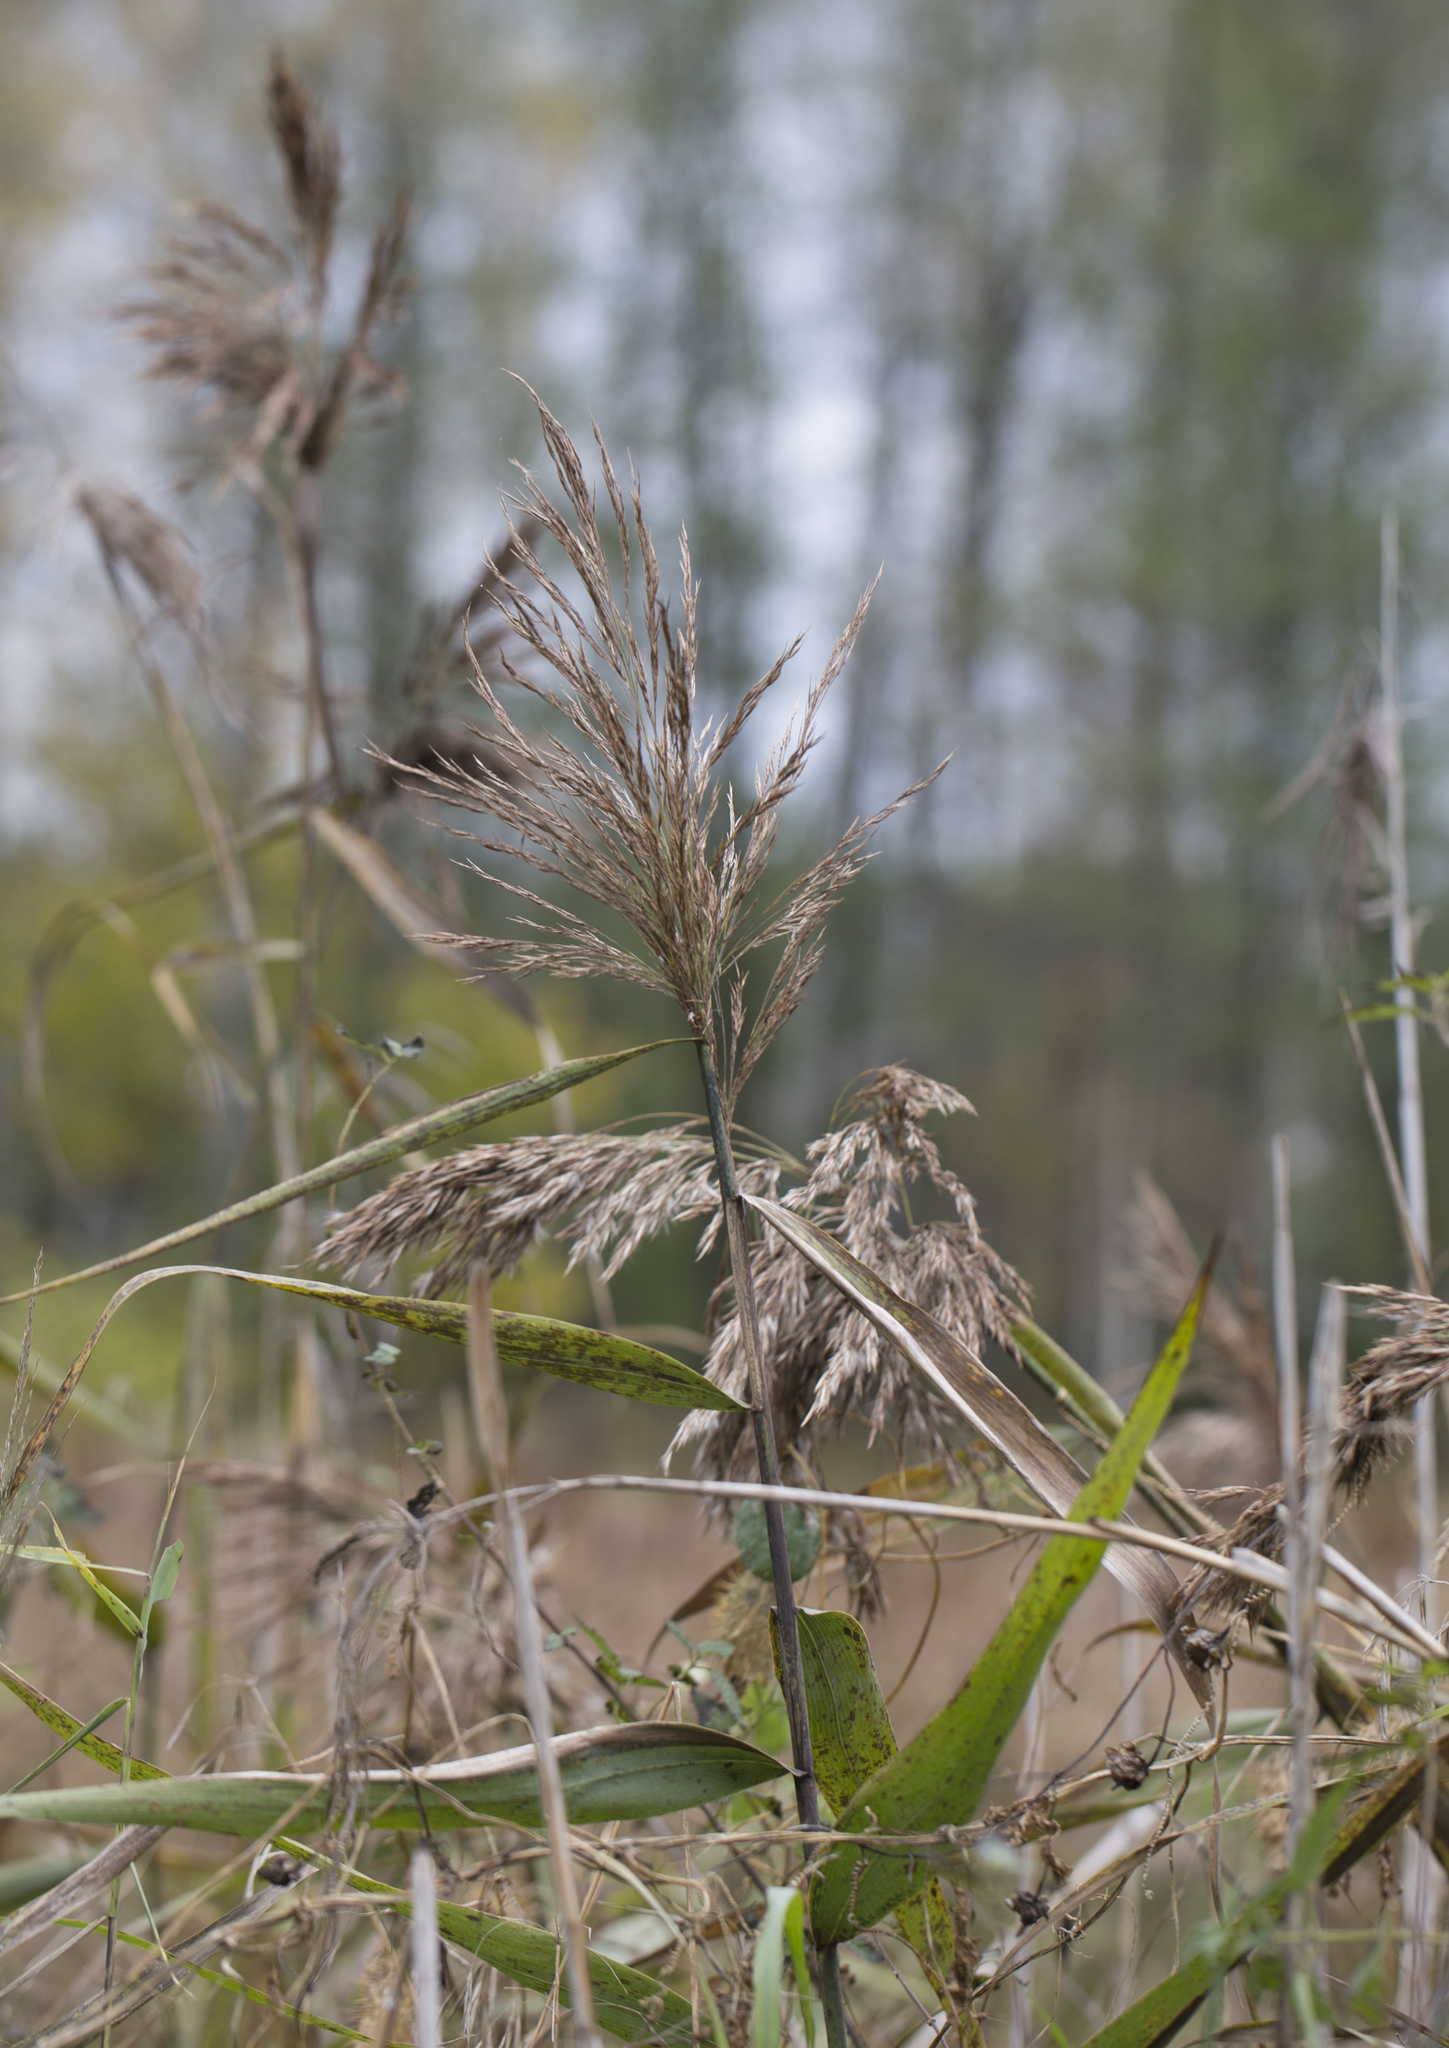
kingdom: Plantae
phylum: Tracheophyta
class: Liliopsida
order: Poales
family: Poaceae
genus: Phragmites
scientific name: Phragmites australis
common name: Common reed
